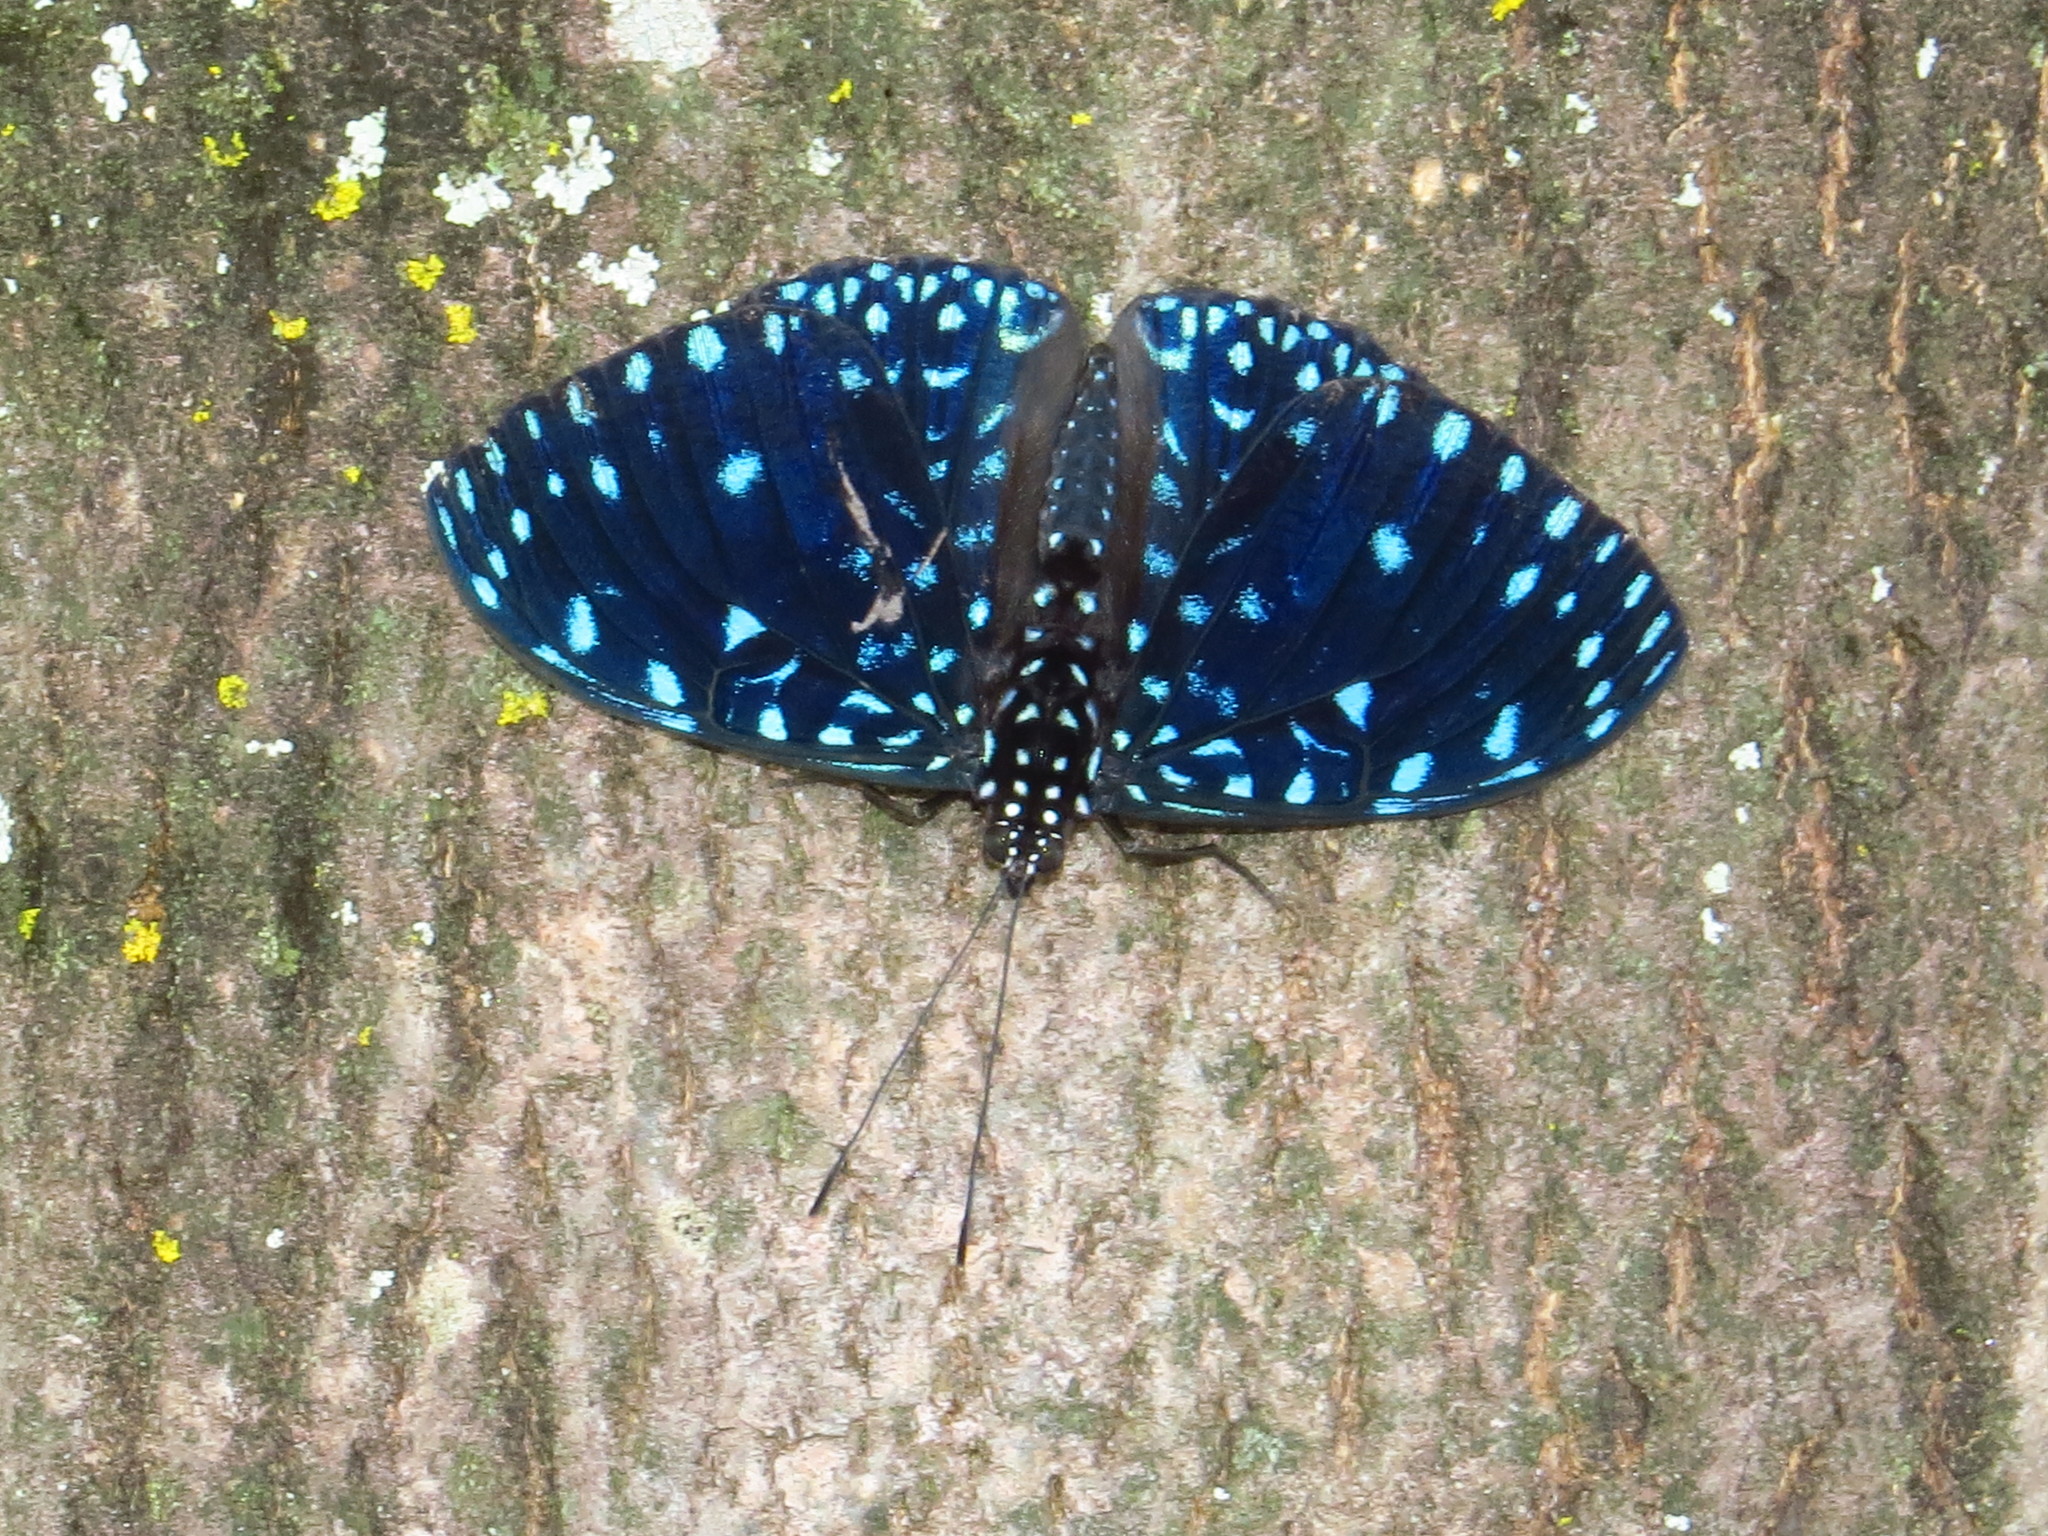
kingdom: Animalia
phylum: Arthropoda
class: Insecta
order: Lepidoptera
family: Nymphalidae
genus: Hamadryas
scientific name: Hamadryas laodamia
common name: Starry night cracker
